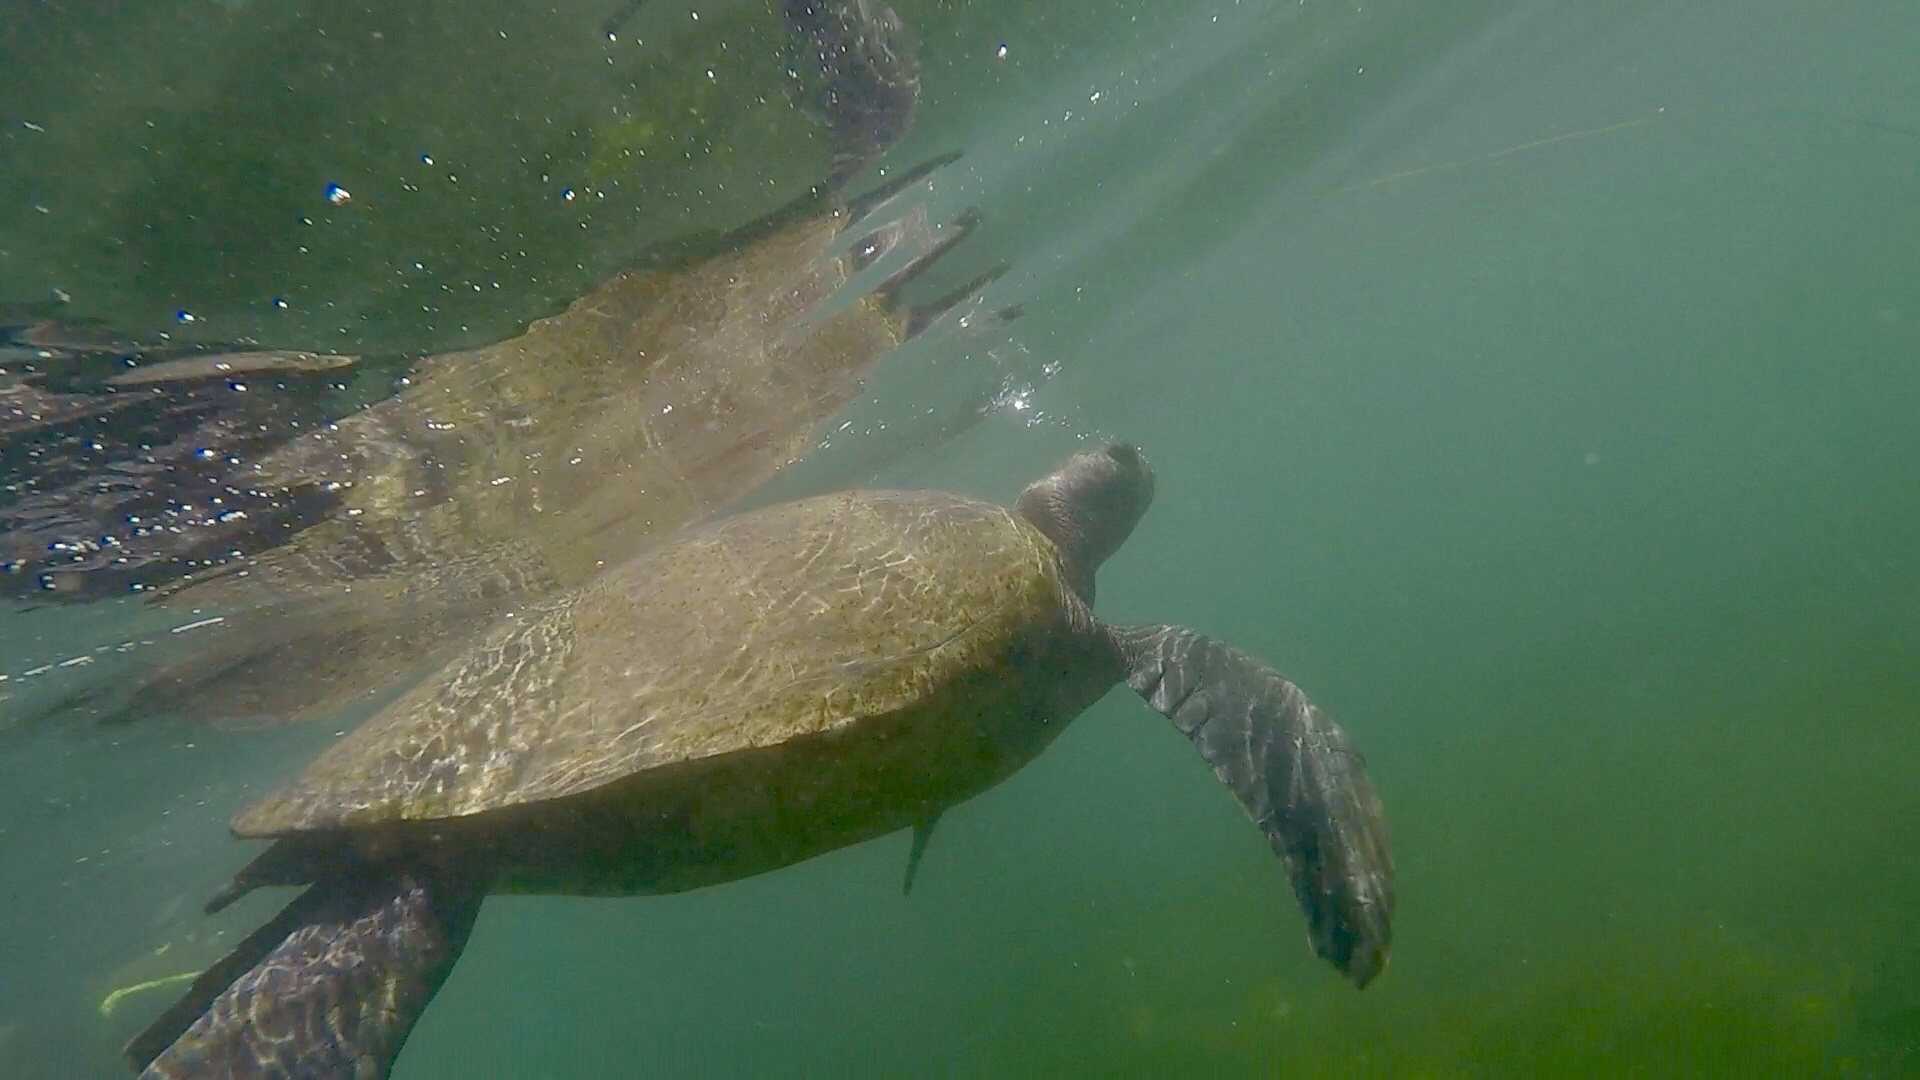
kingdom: Animalia
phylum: Chordata
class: Testudines
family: Cheloniidae
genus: Chelonia
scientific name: Chelonia mydas
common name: Green turtle
